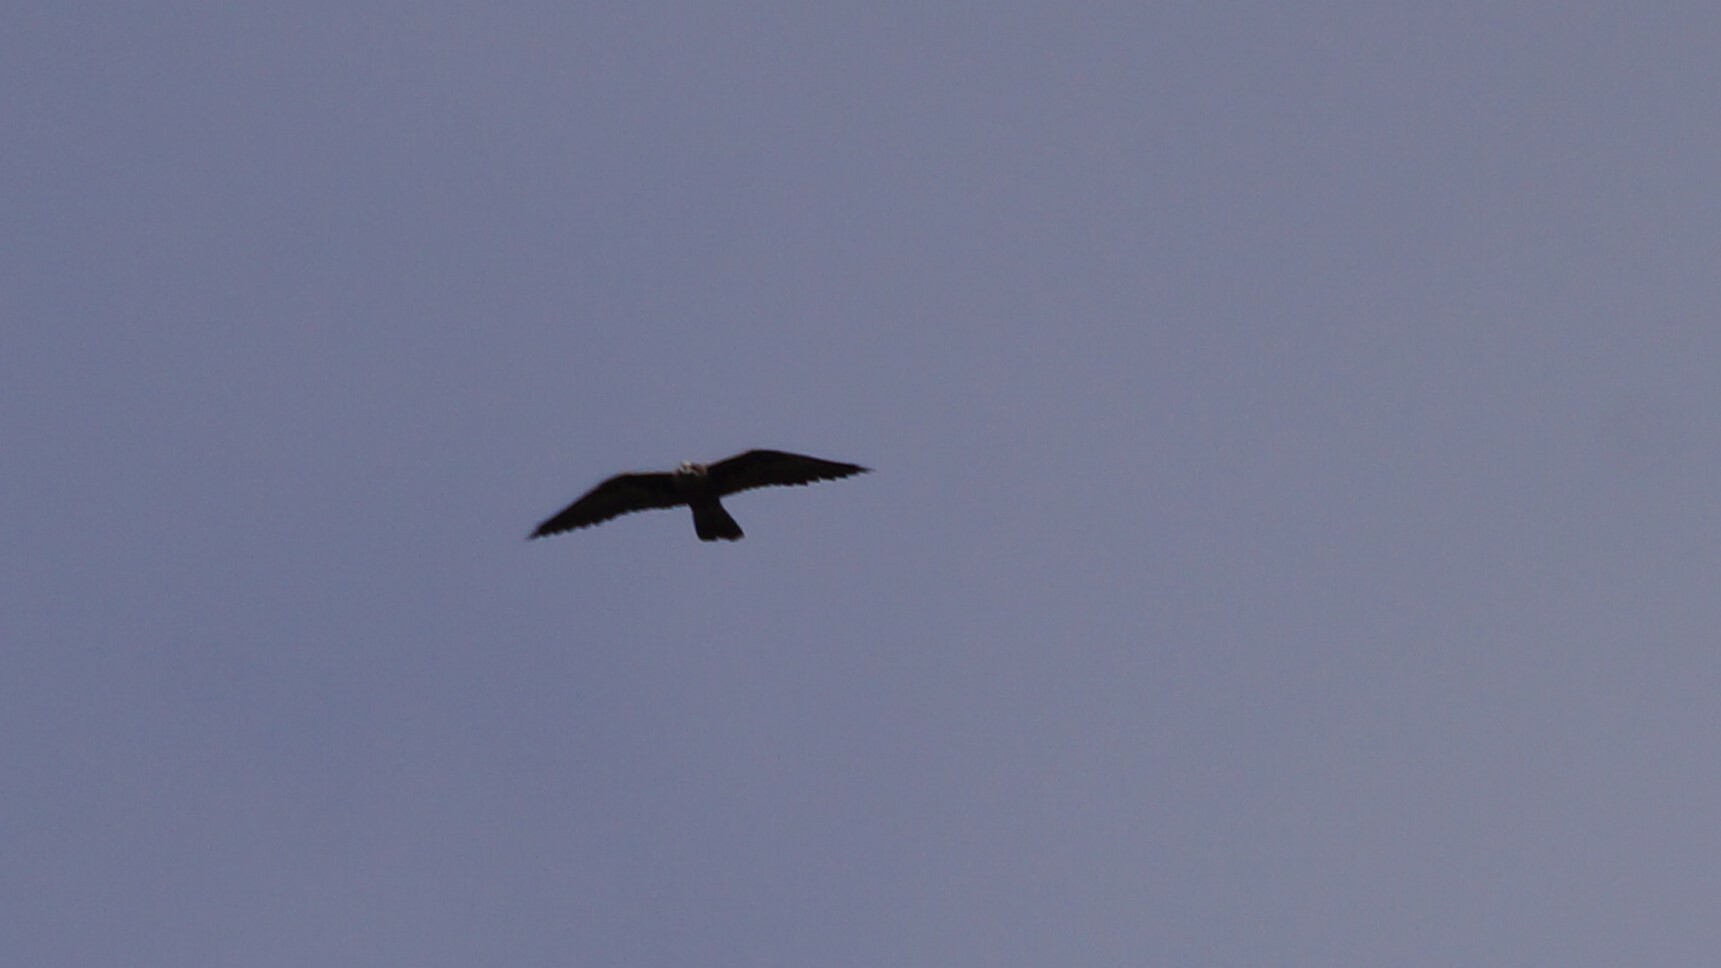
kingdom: Animalia
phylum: Chordata
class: Aves
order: Falconiformes
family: Falconidae
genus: Falco
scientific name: Falco subniger
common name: Black falcon
